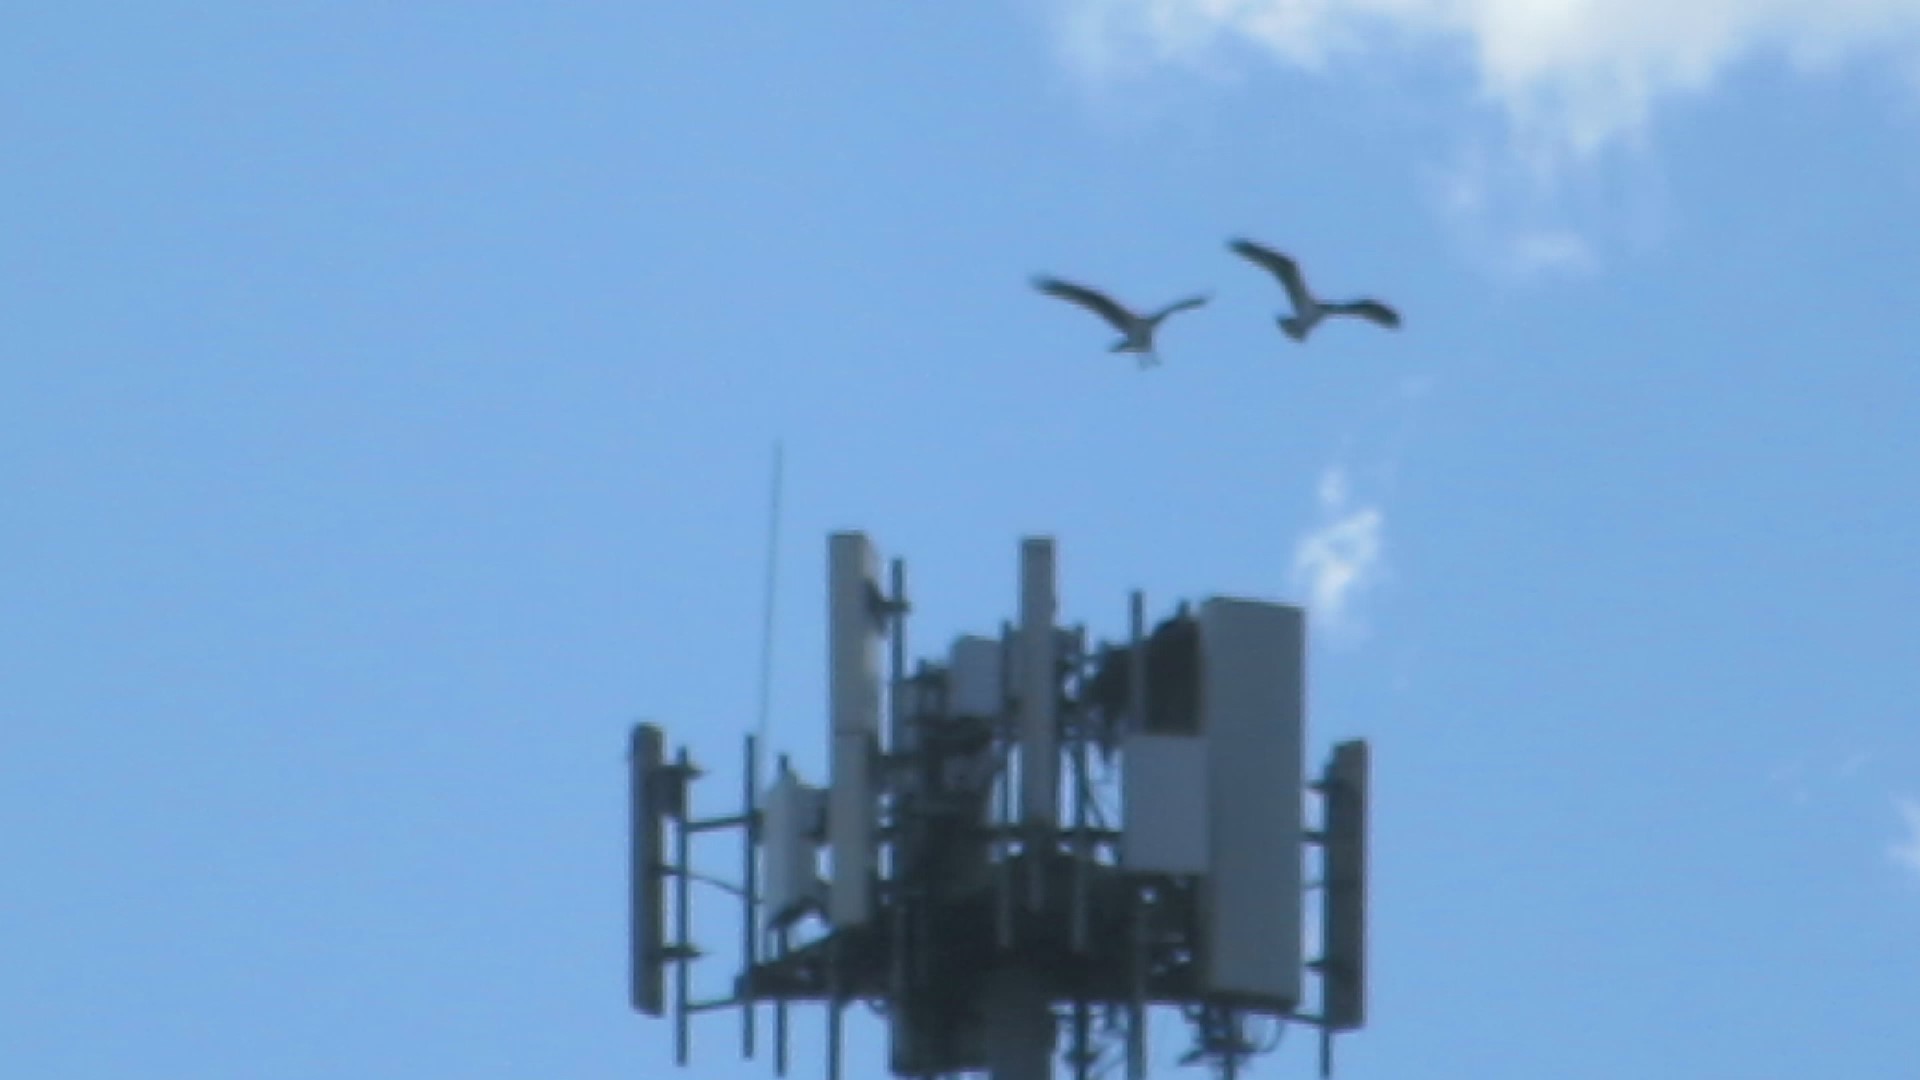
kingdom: Animalia
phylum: Chordata
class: Aves
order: Accipitriformes
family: Pandionidae
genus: Pandion
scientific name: Pandion haliaetus
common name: Osprey
